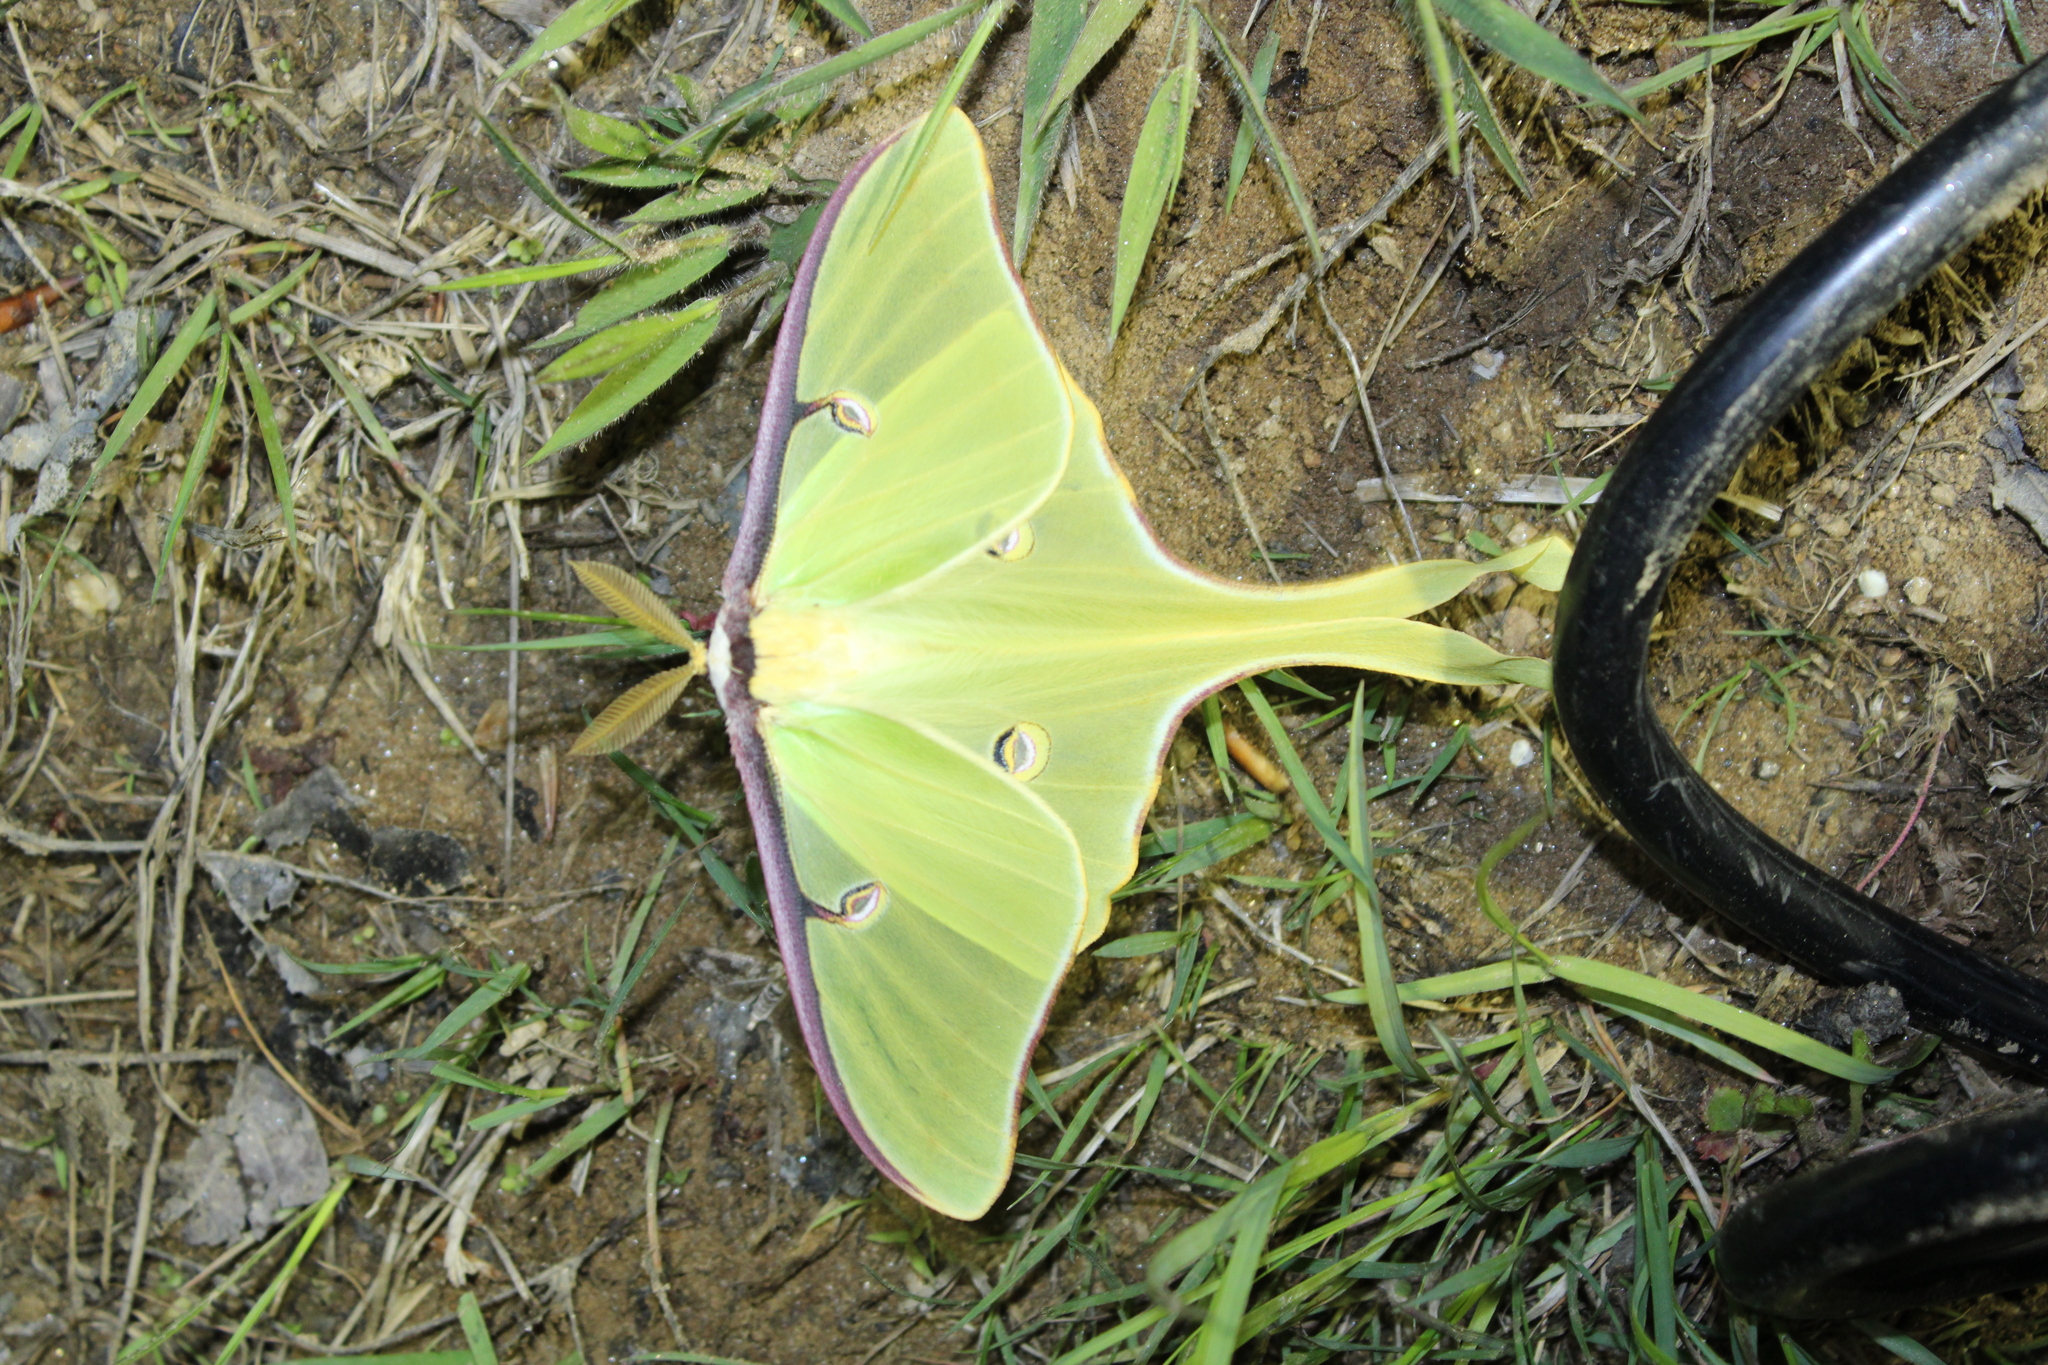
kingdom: Animalia
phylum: Arthropoda
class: Insecta
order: Lepidoptera
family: Saturniidae
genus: Actias
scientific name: Actias luna
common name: Luna moth
